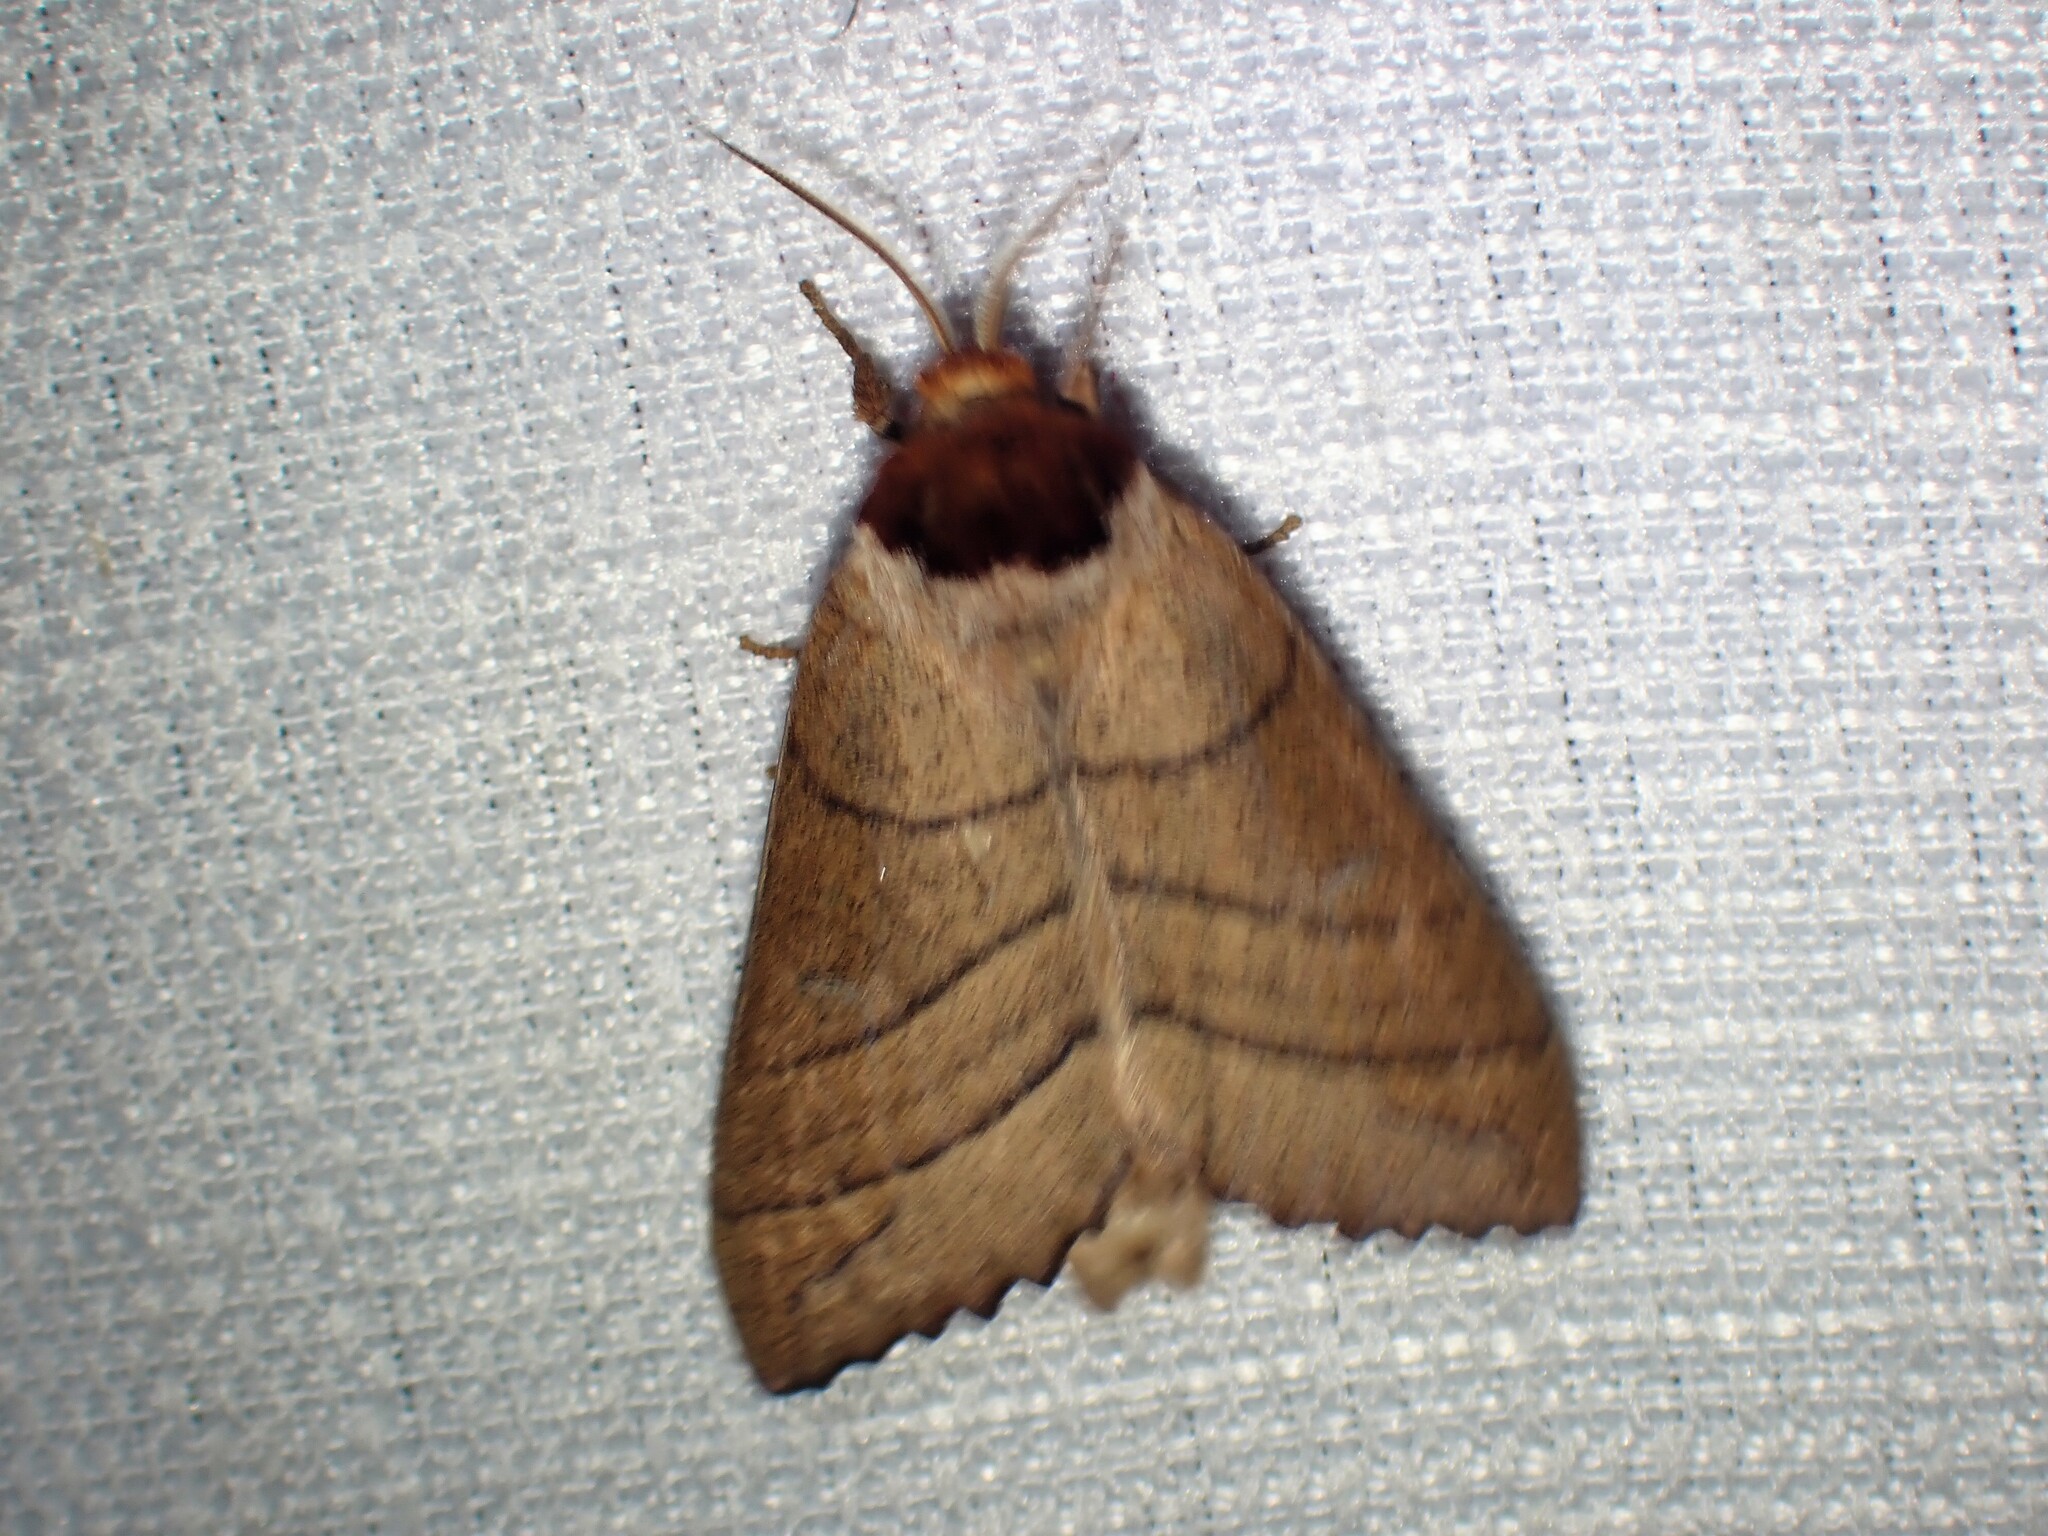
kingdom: Animalia
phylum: Arthropoda
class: Insecta
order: Lepidoptera
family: Notodontidae
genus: Datana
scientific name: Datana ministra
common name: Yellow-necked caterpillar moth
